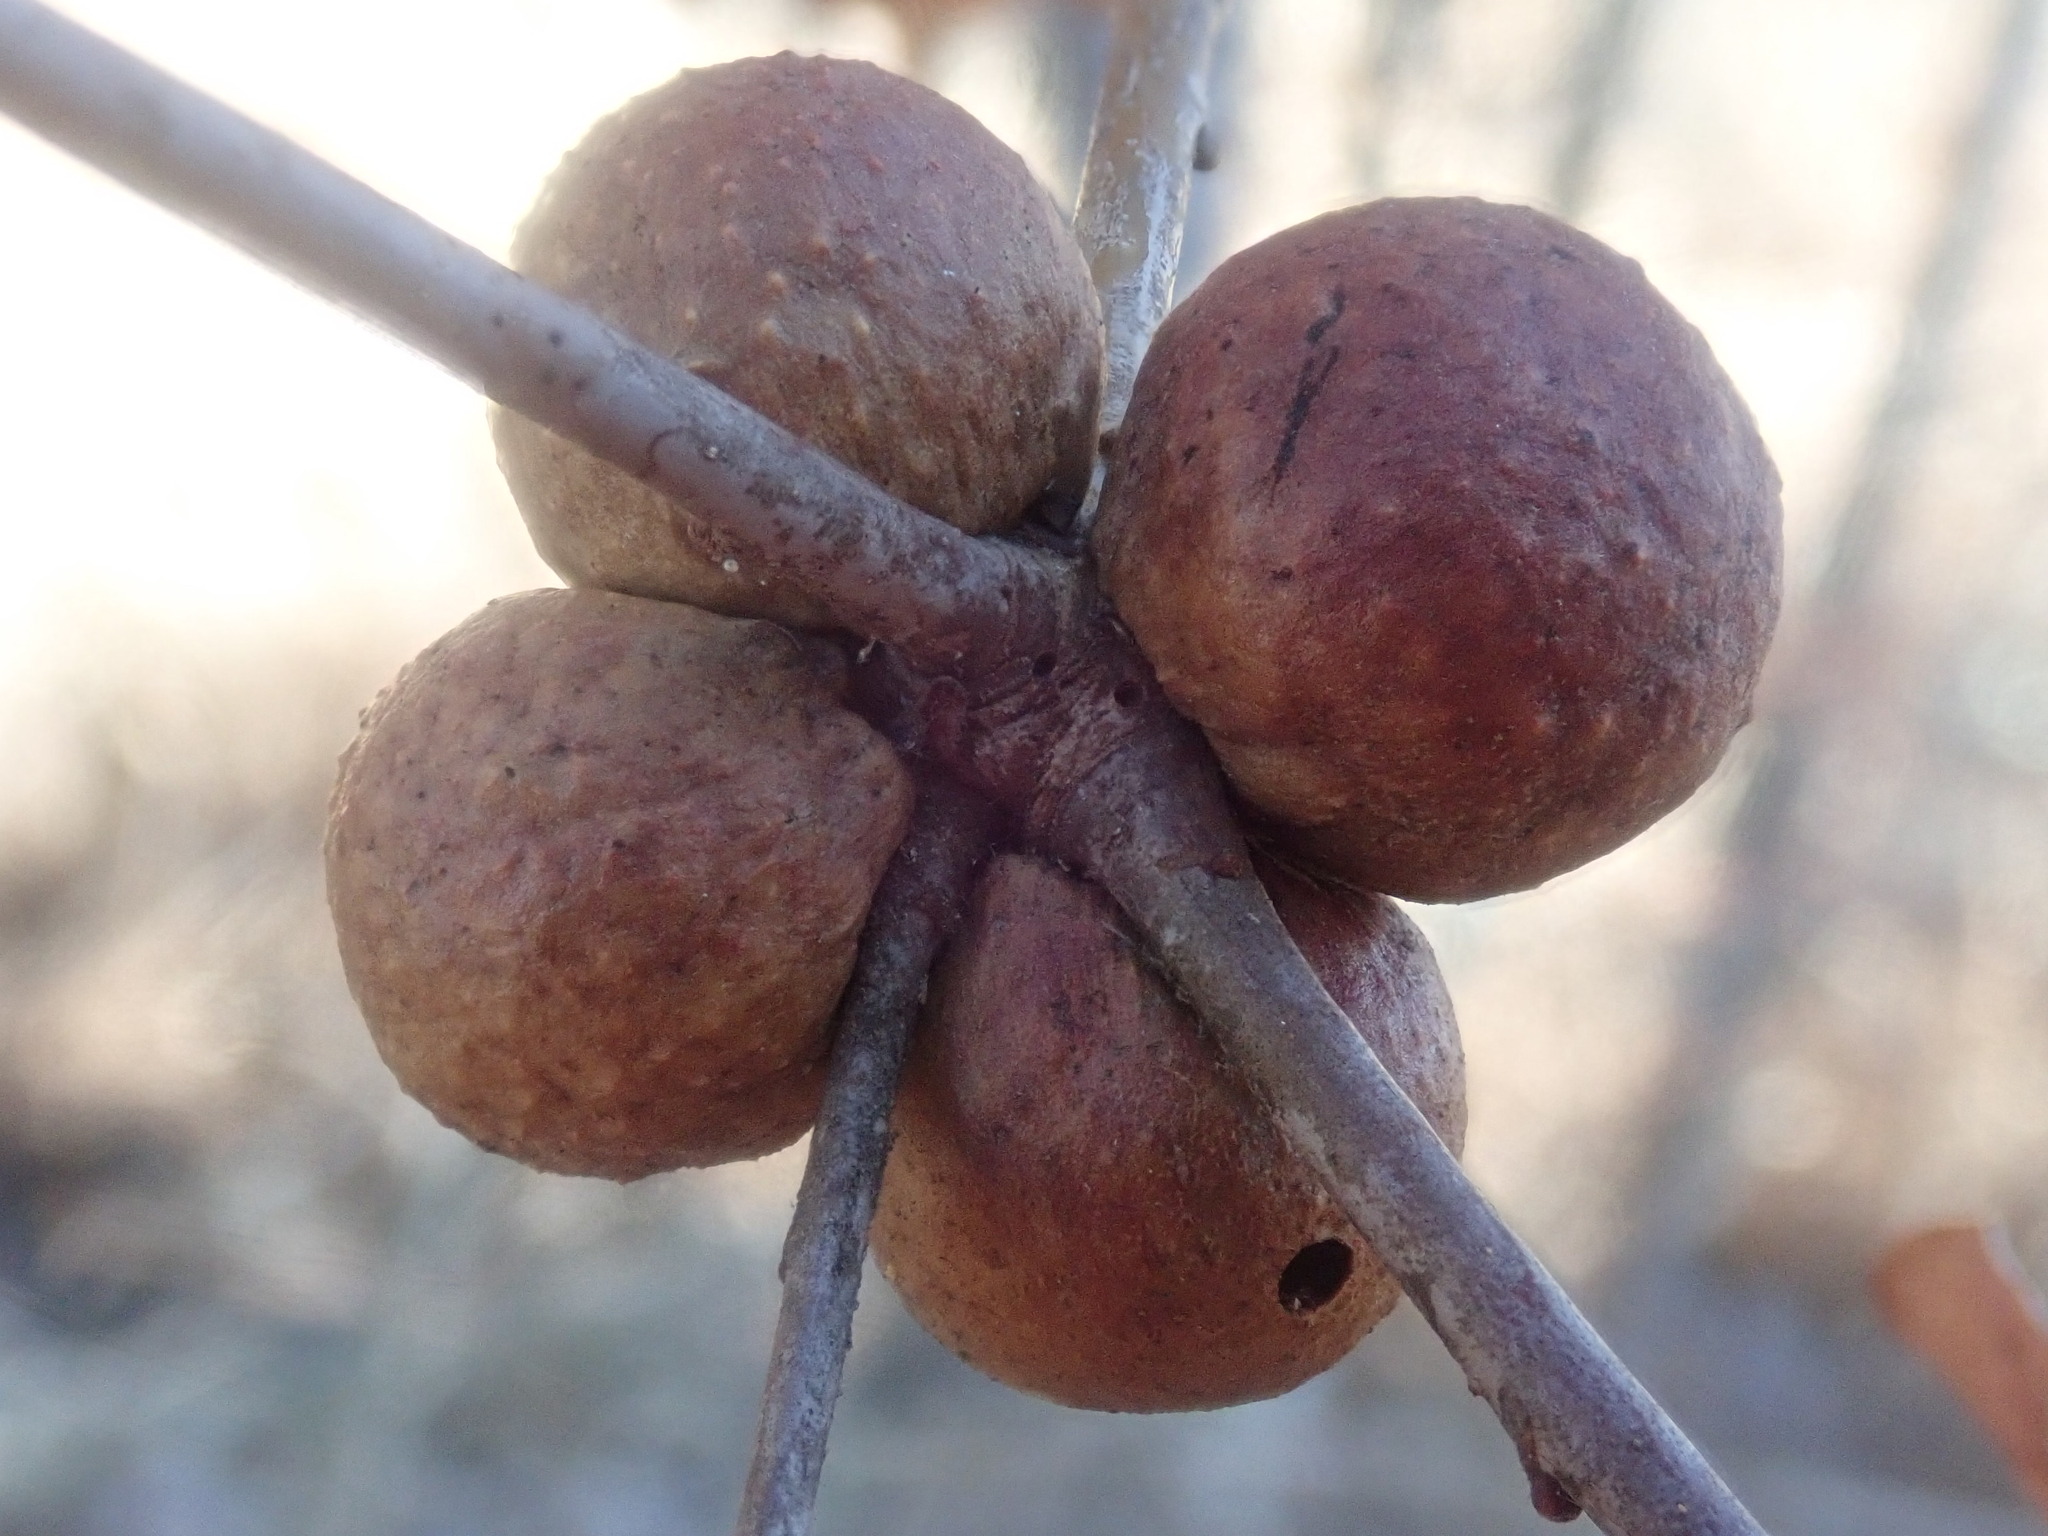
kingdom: Animalia
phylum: Arthropoda
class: Insecta
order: Hymenoptera
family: Cynipidae
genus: Disholcaspis
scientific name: Disholcaspis quercusglobulus
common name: Round bullet gall wasp
